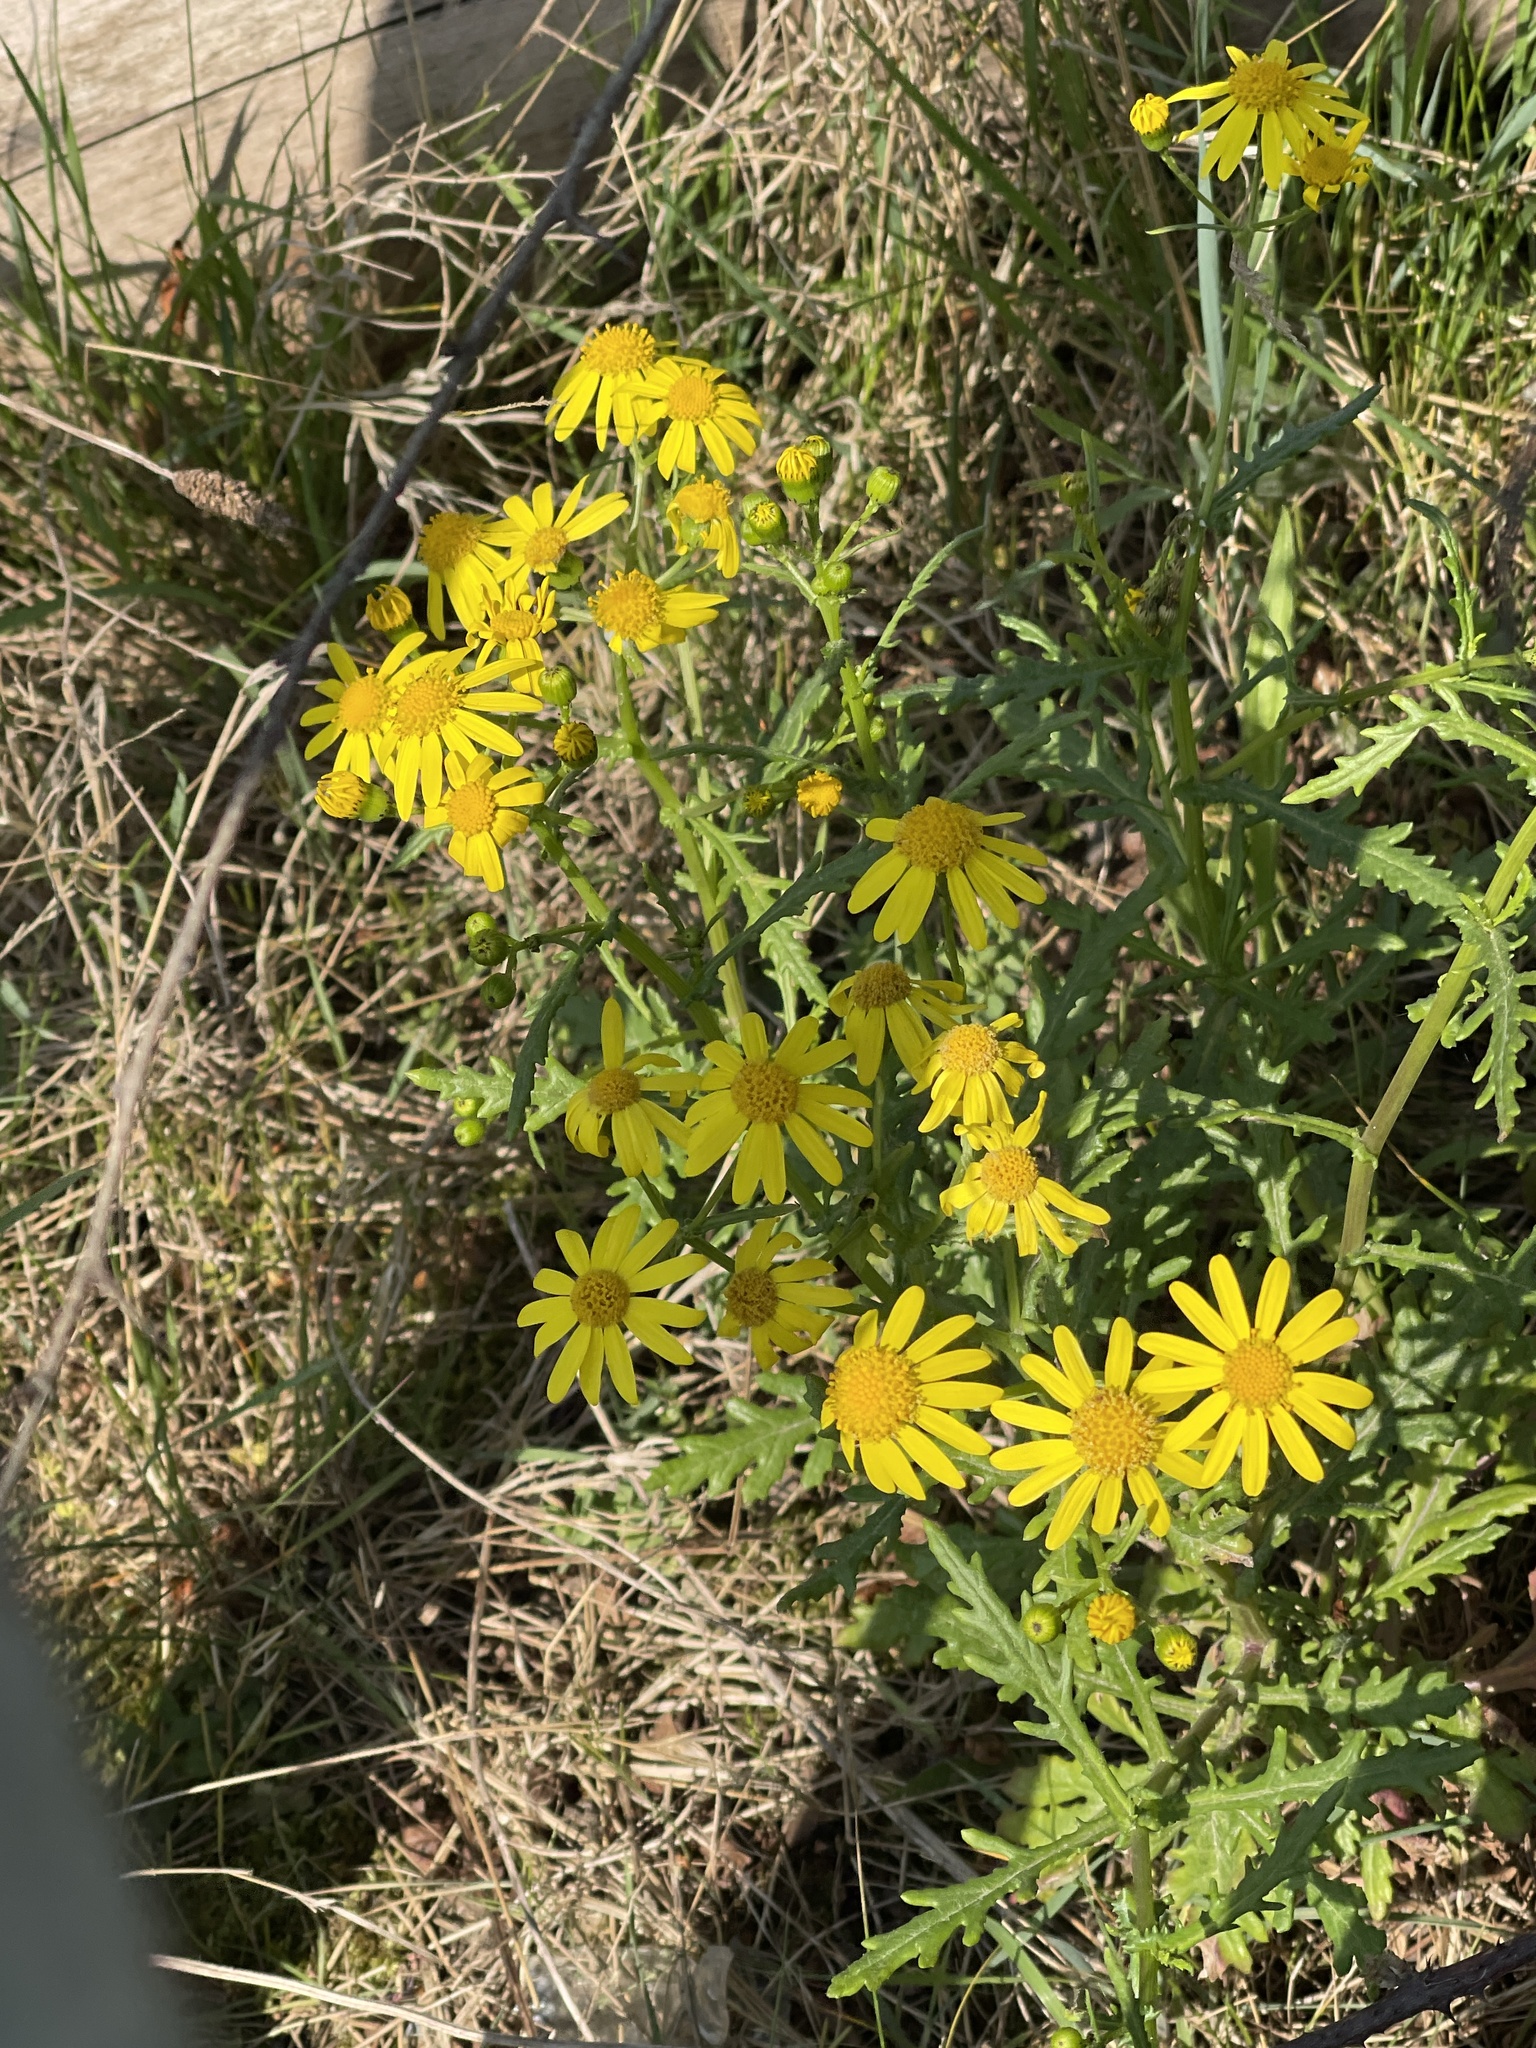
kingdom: Plantae
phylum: Tracheophyta
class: Magnoliopsida
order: Asterales
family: Asteraceae
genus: Senecio
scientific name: Senecio squalidus
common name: Oxford ragwort
